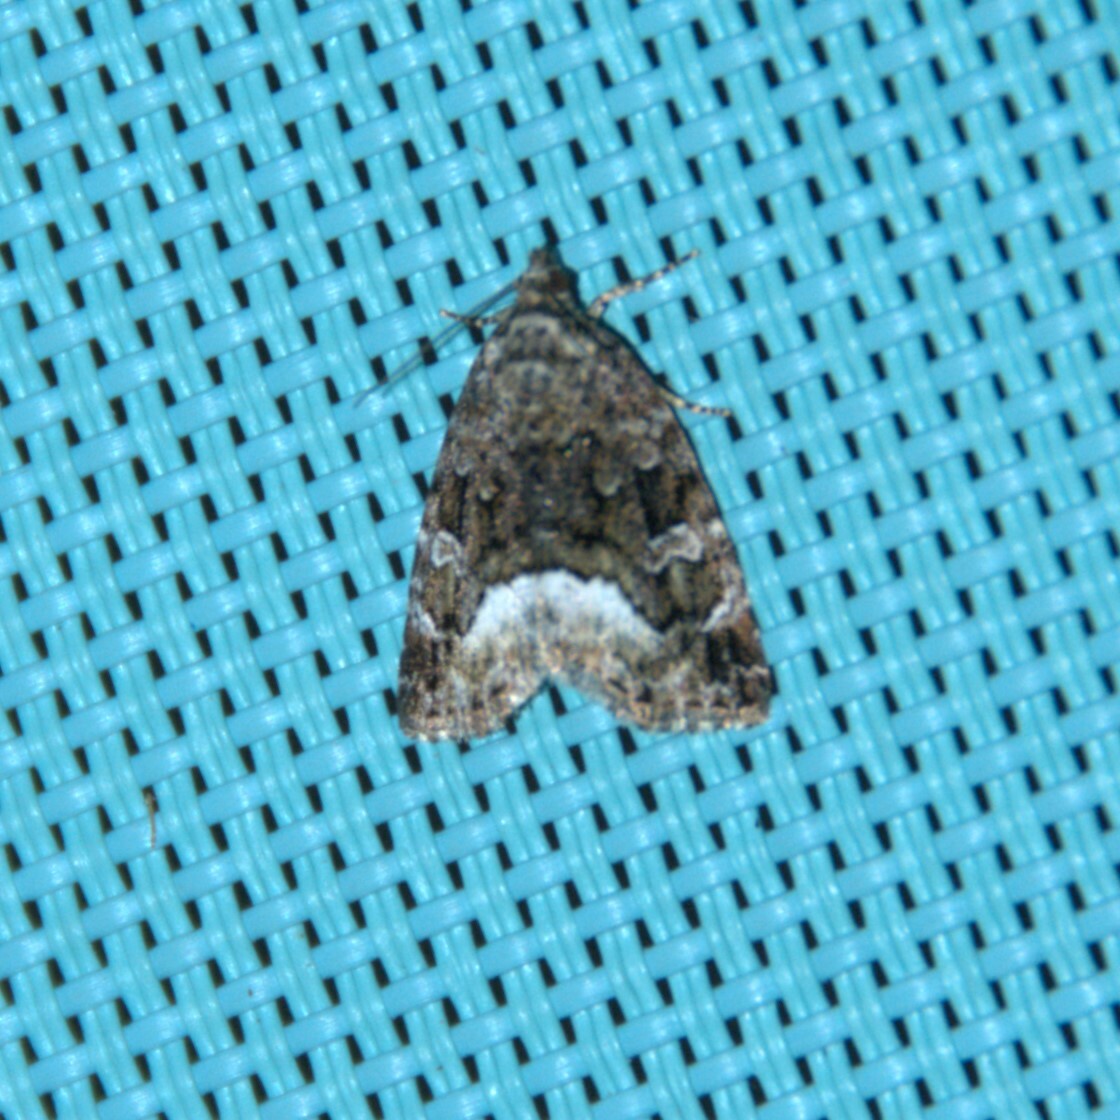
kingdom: Animalia
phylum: Arthropoda
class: Insecta
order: Lepidoptera
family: Noctuidae
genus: Deltote
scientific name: Deltote pygarga
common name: Marbled white spot
